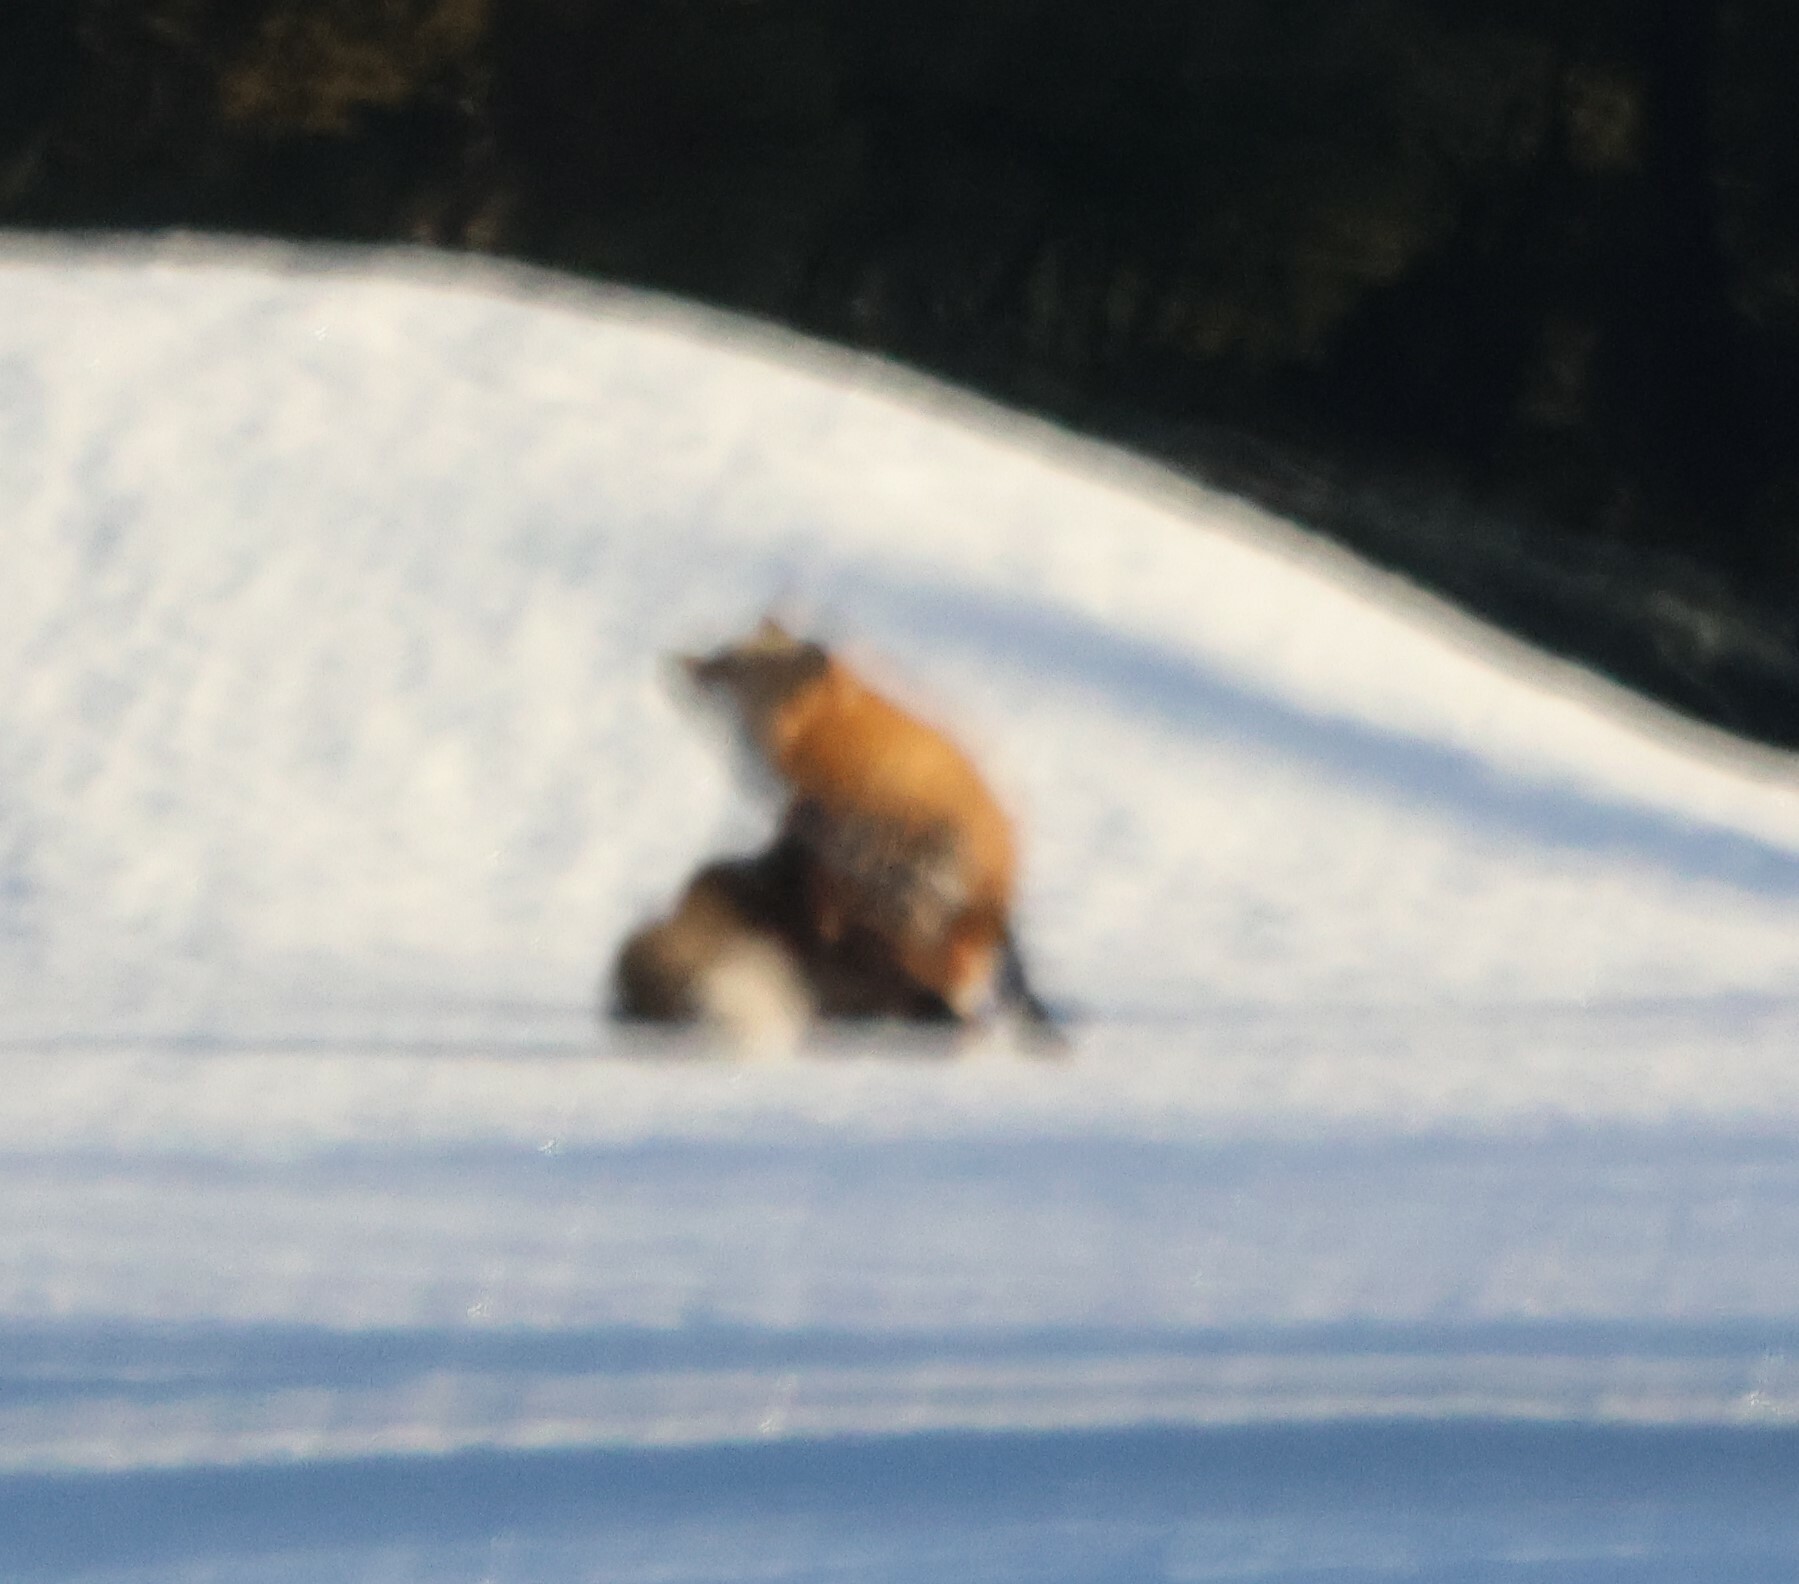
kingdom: Animalia
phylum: Chordata
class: Mammalia
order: Carnivora
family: Canidae
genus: Vulpes
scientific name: Vulpes vulpes
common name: Red fox
